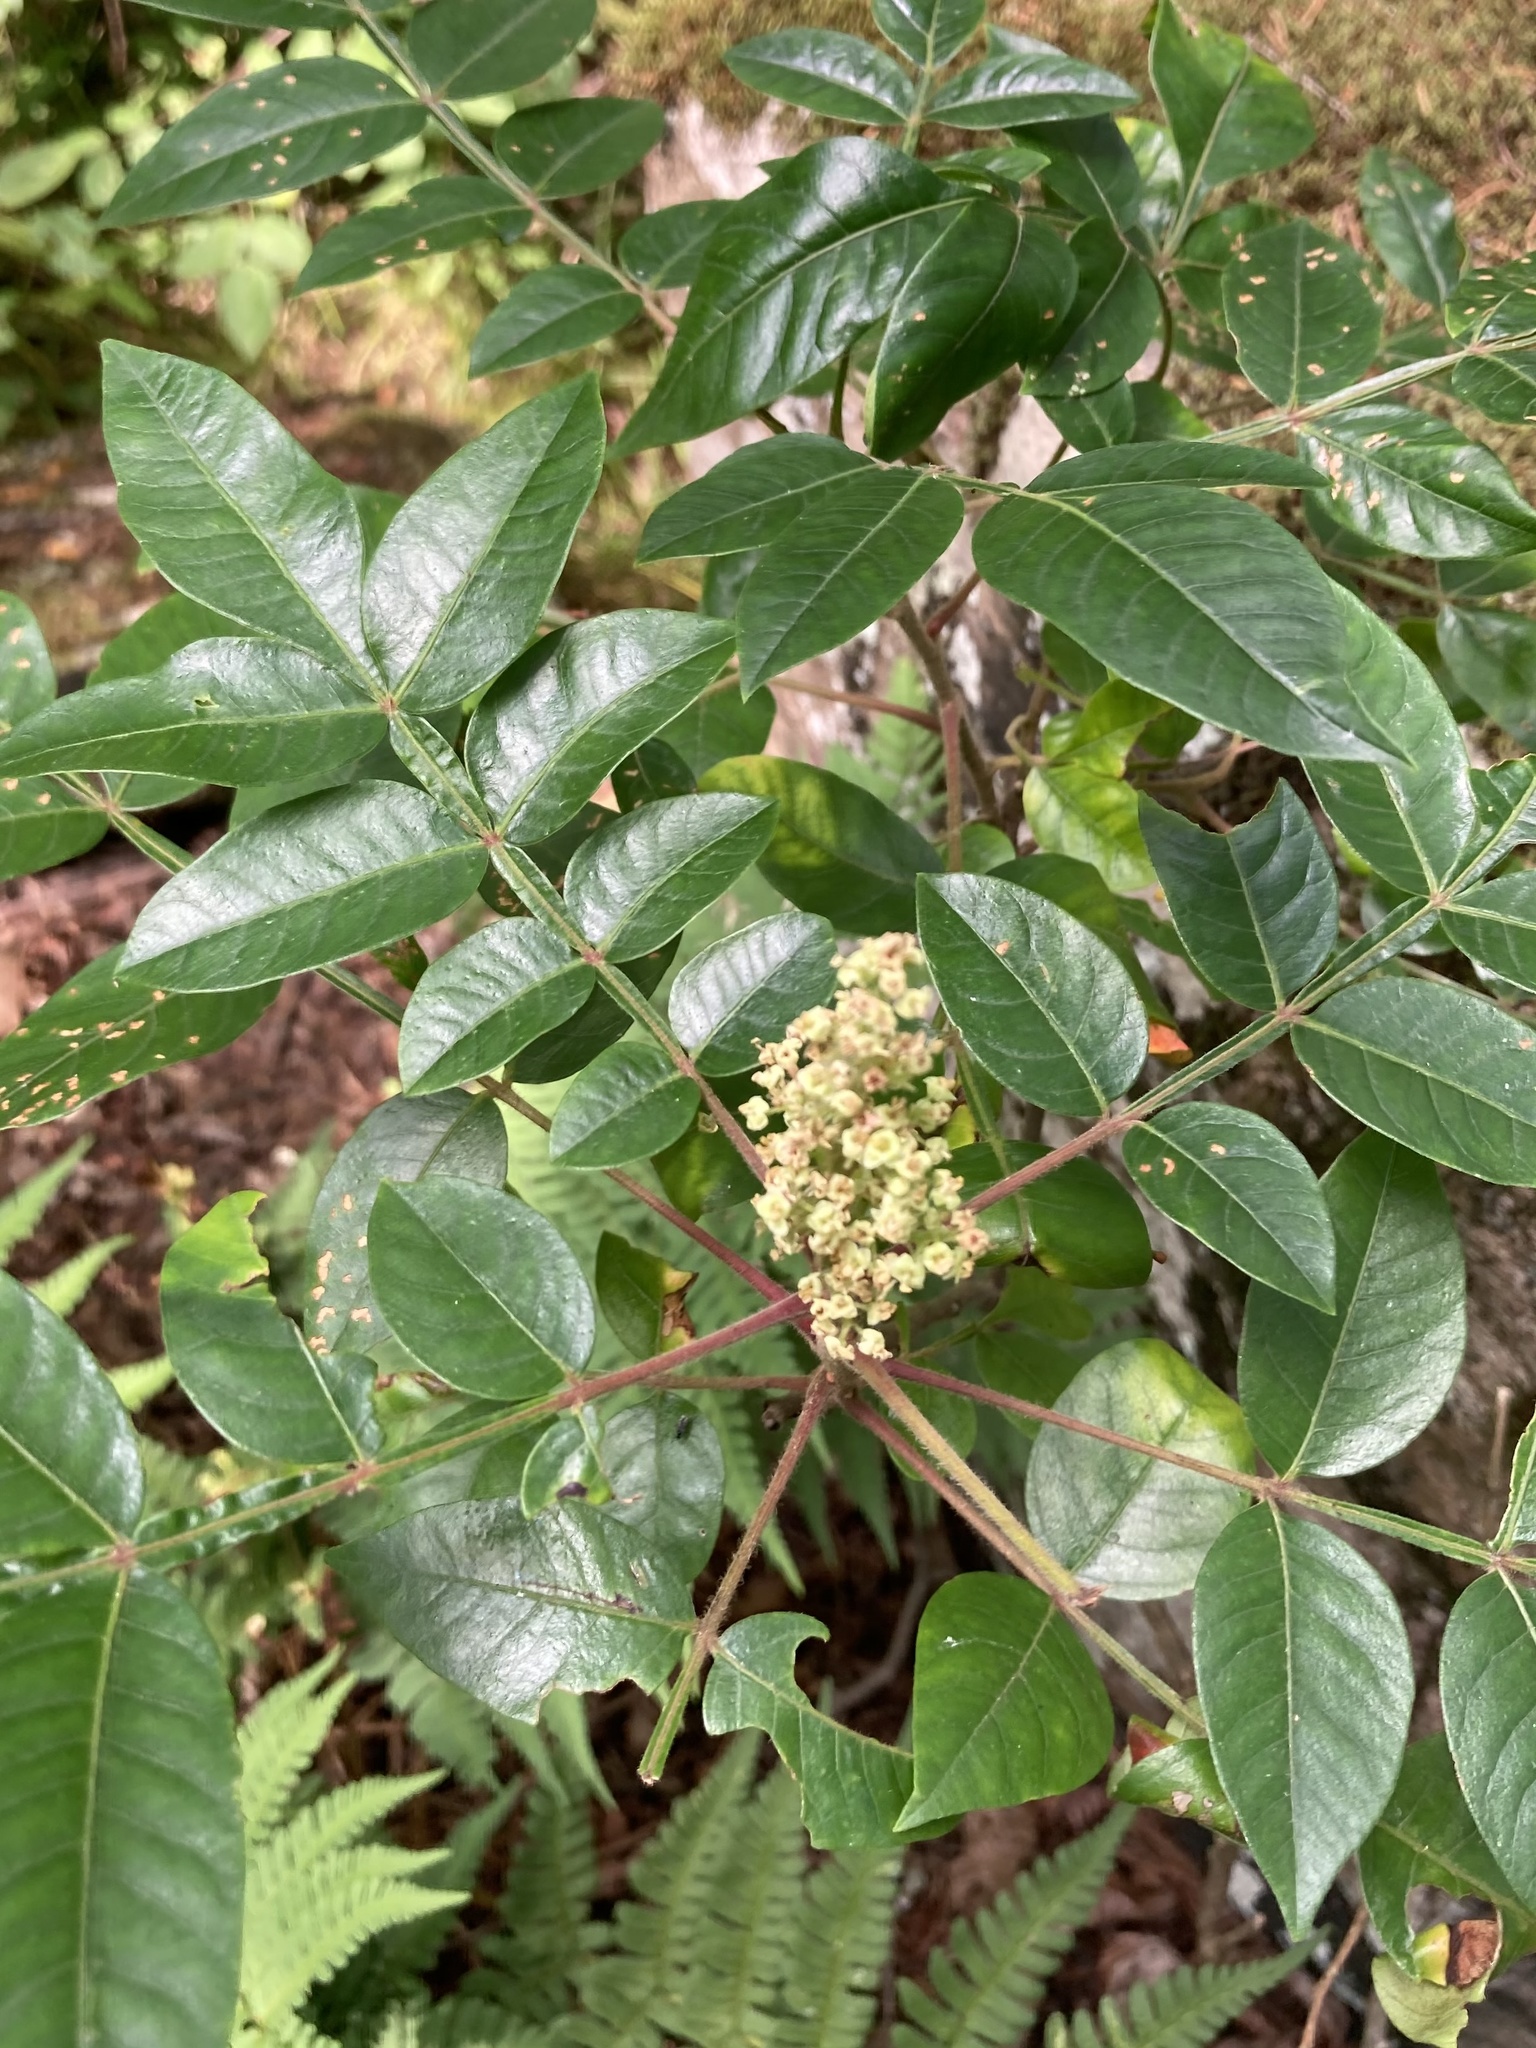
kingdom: Plantae
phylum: Tracheophyta
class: Magnoliopsida
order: Sapindales
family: Anacardiaceae
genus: Rhus
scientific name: Rhus copallina
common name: Shining sumac
